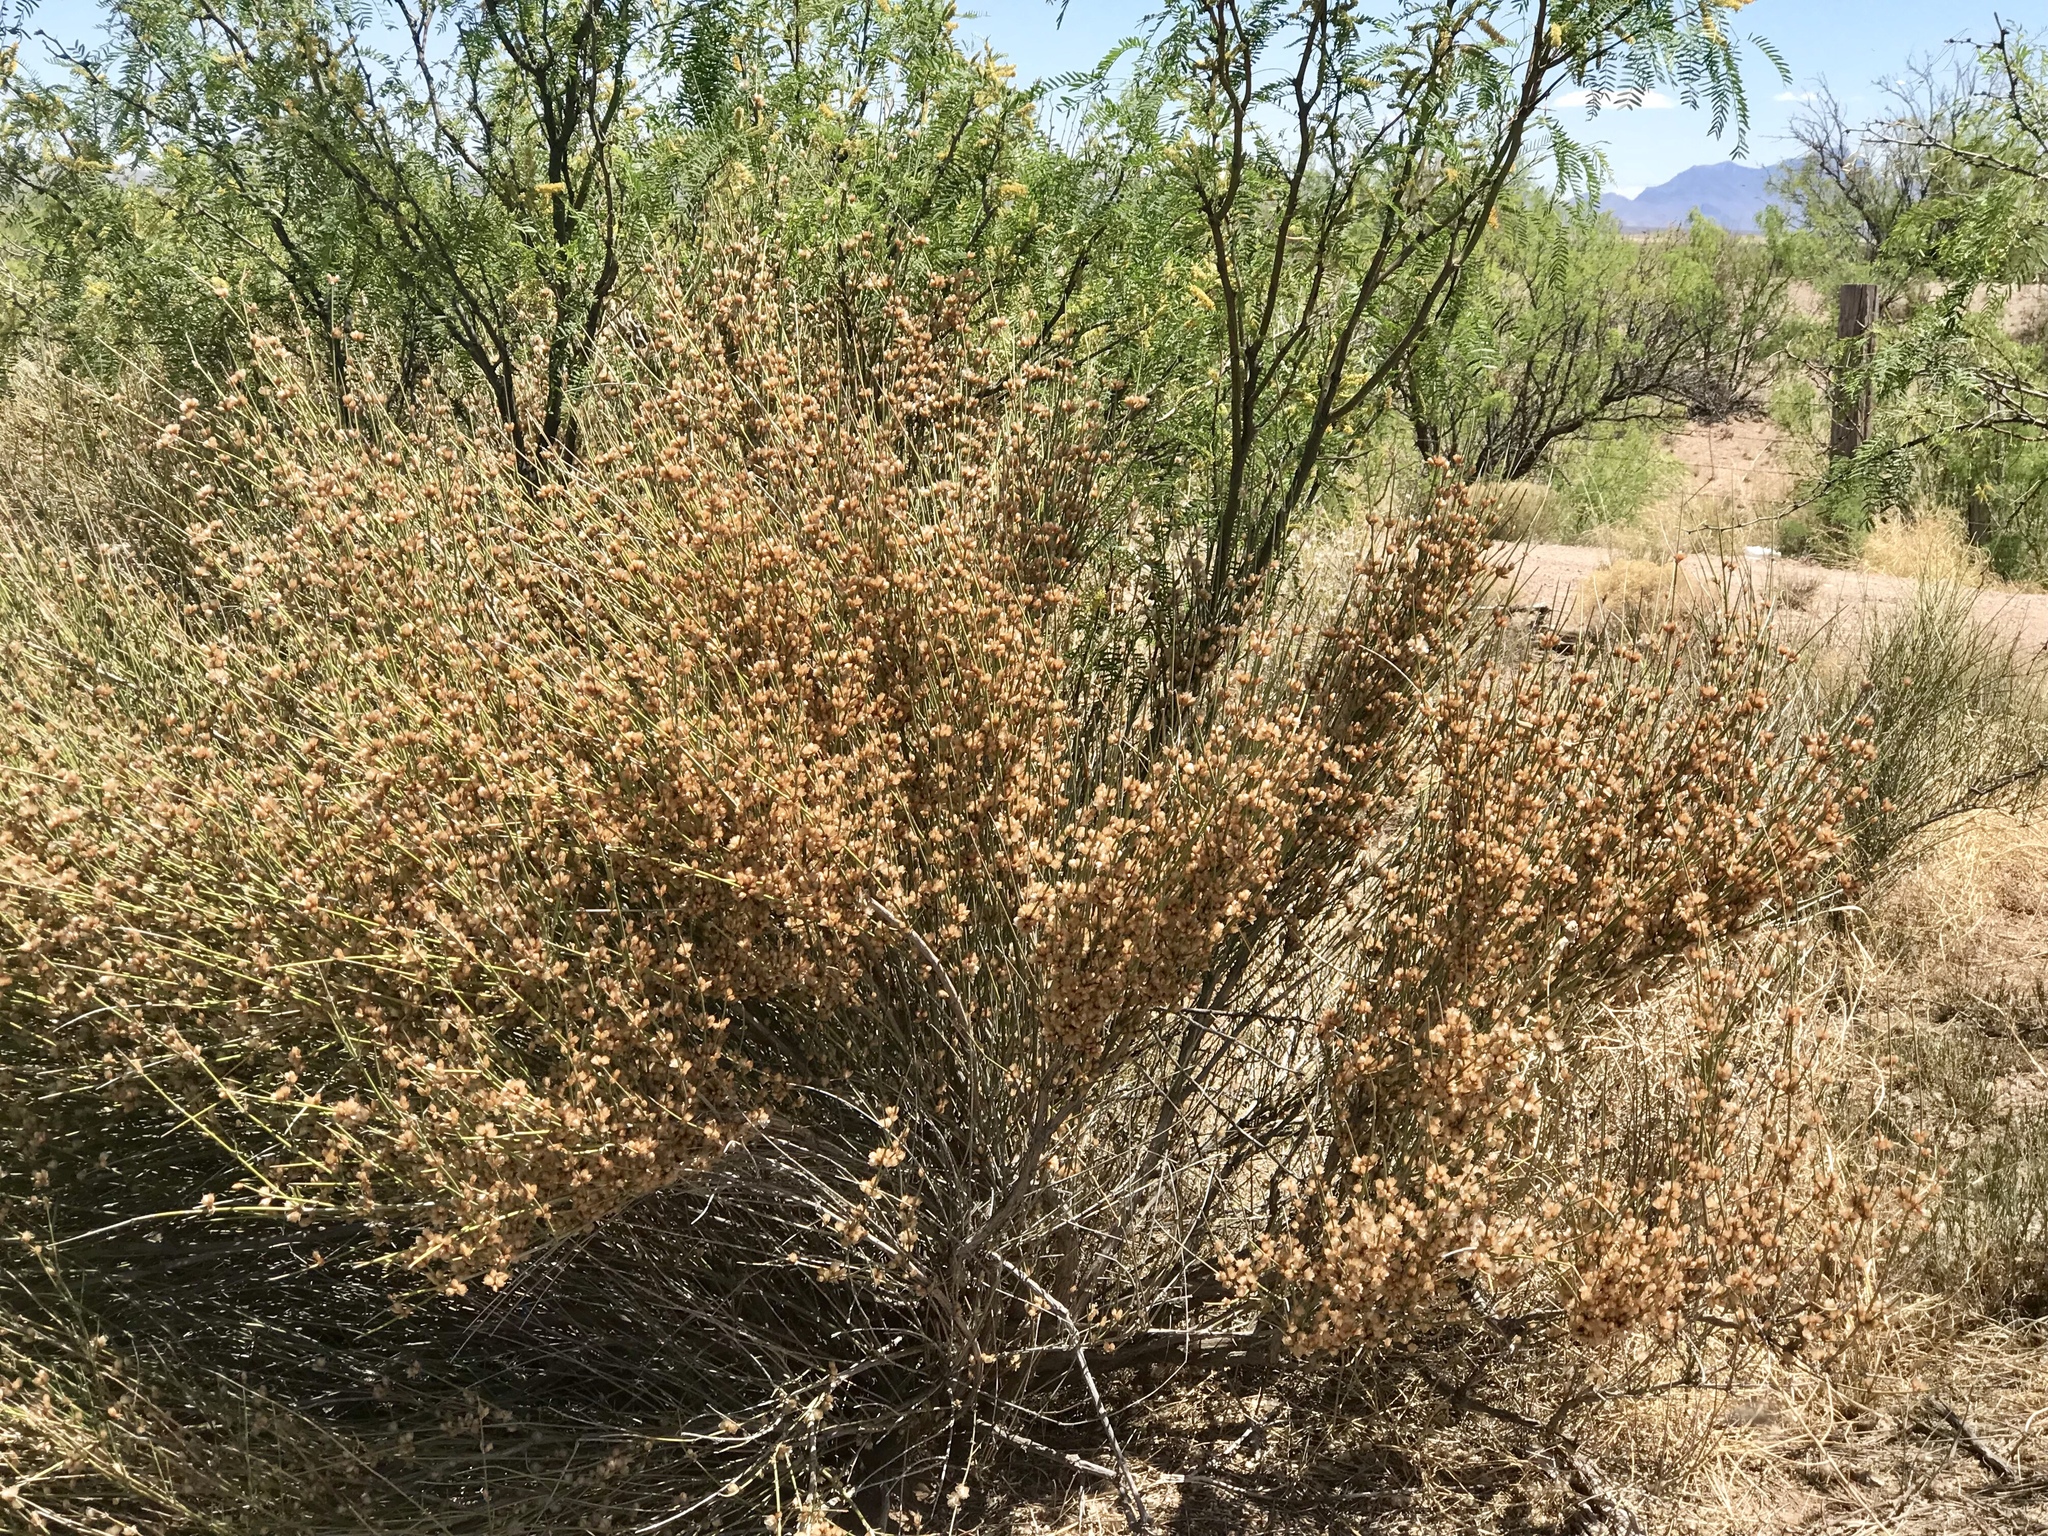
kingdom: Plantae
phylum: Tracheophyta
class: Gnetopsida
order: Ephedrales
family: Ephedraceae
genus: Ephedra
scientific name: Ephedra trifurca
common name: Mexican-tea
